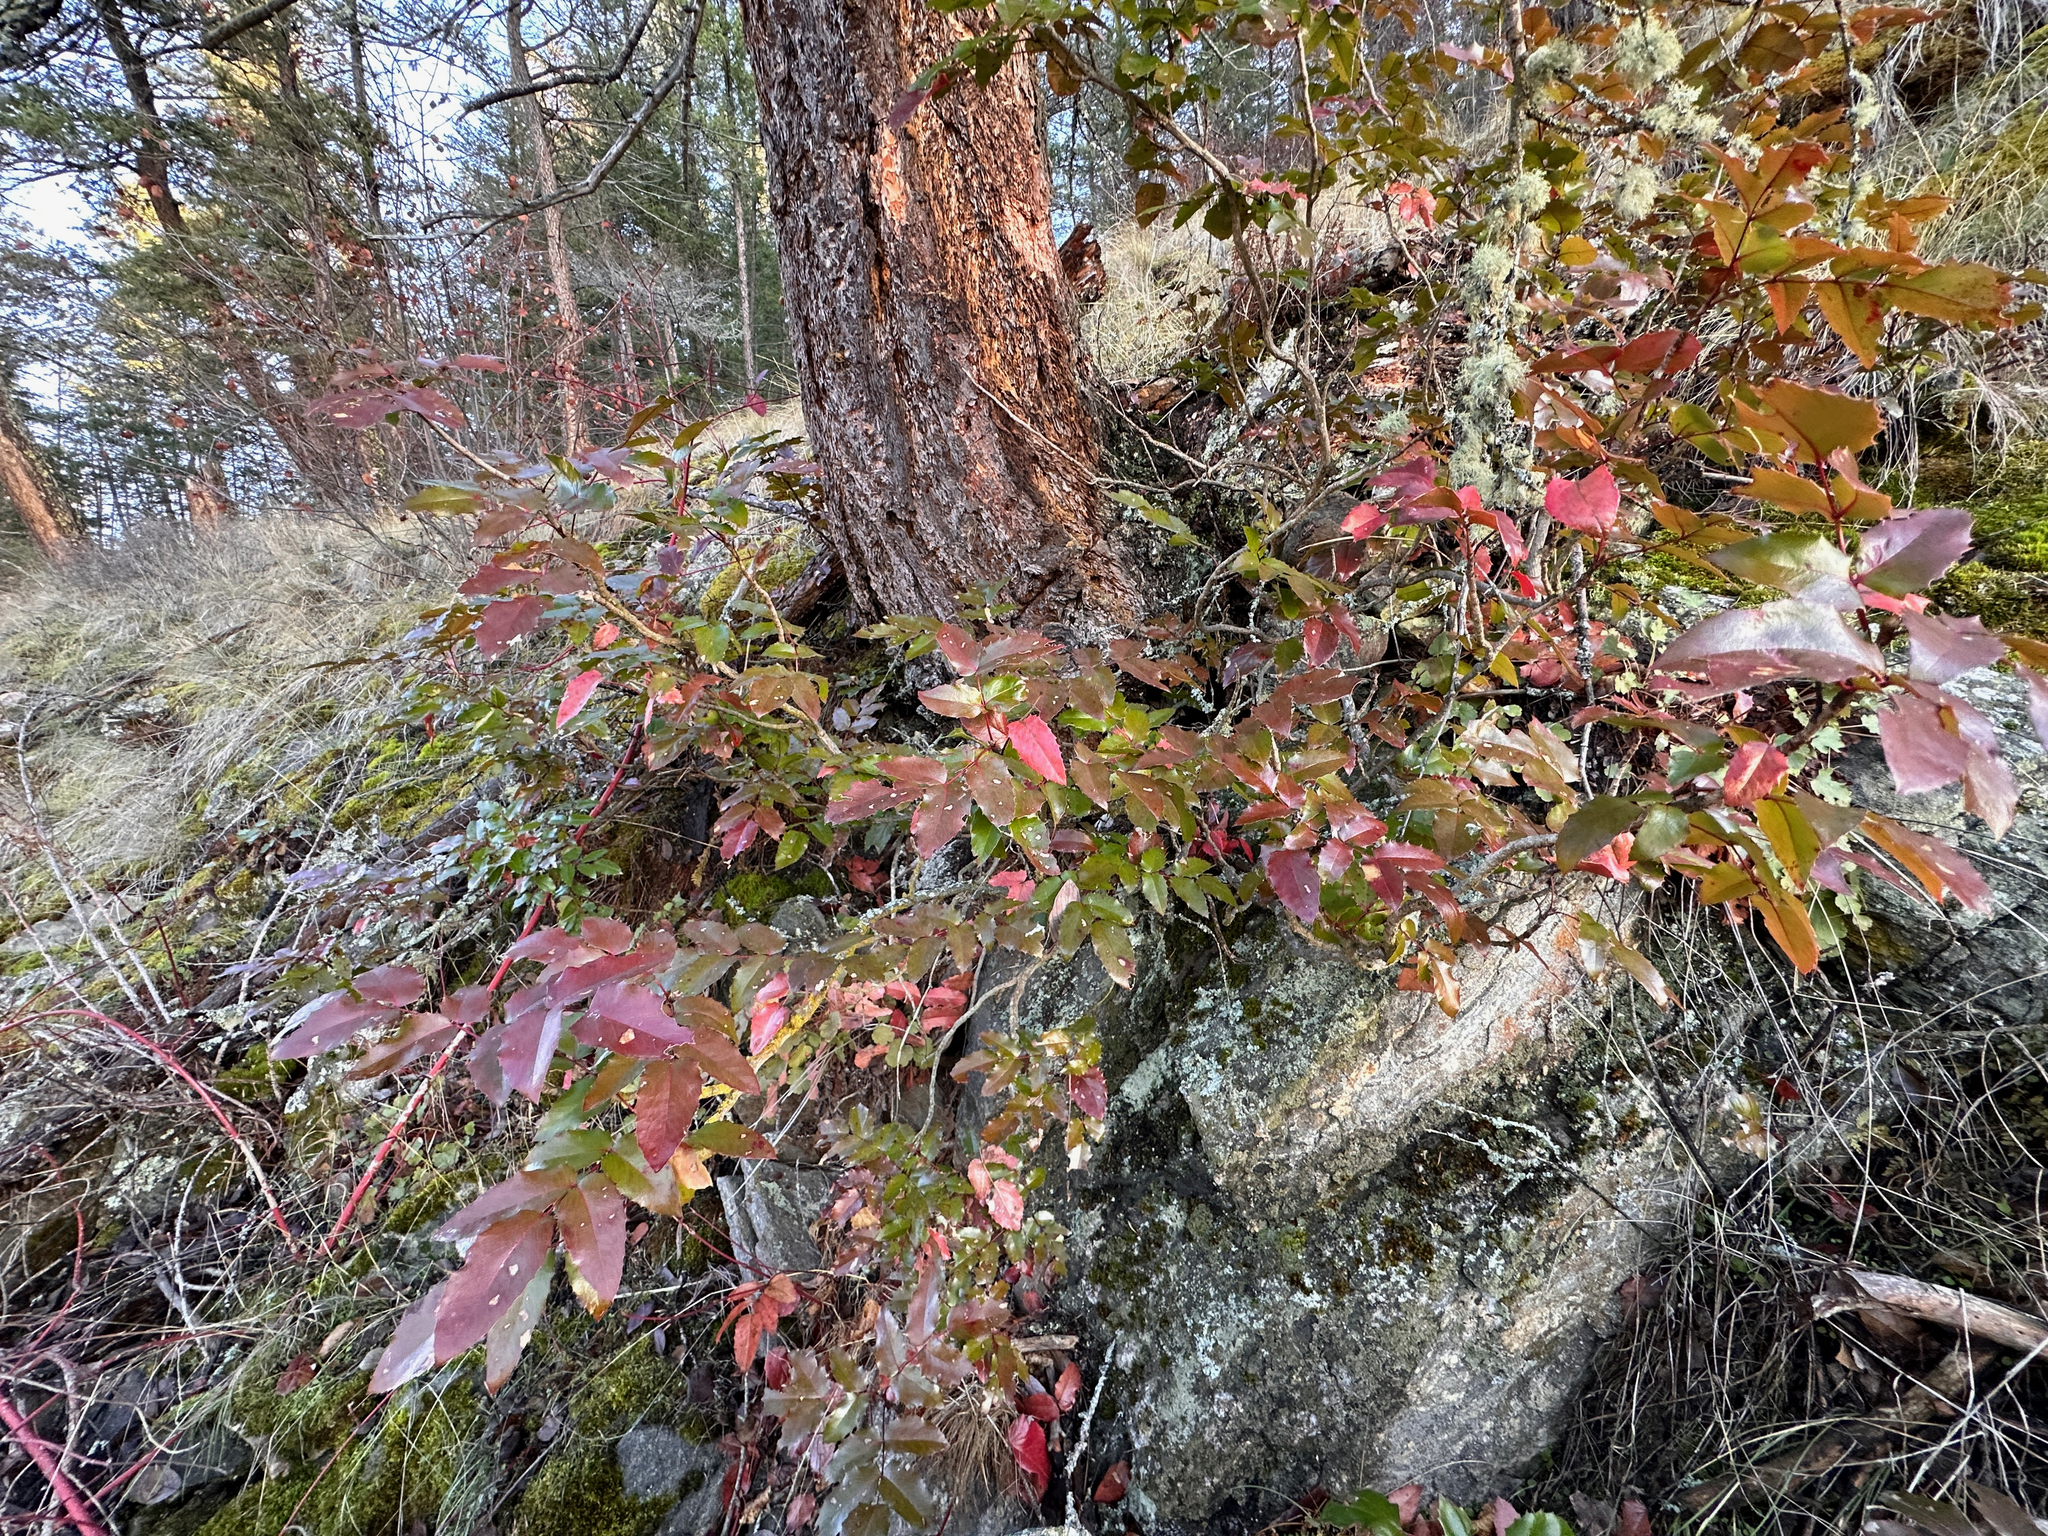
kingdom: Plantae
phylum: Tracheophyta
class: Magnoliopsida
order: Ranunculales
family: Berberidaceae
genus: Mahonia
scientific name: Mahonia aquifolium
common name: Oregon-grape
